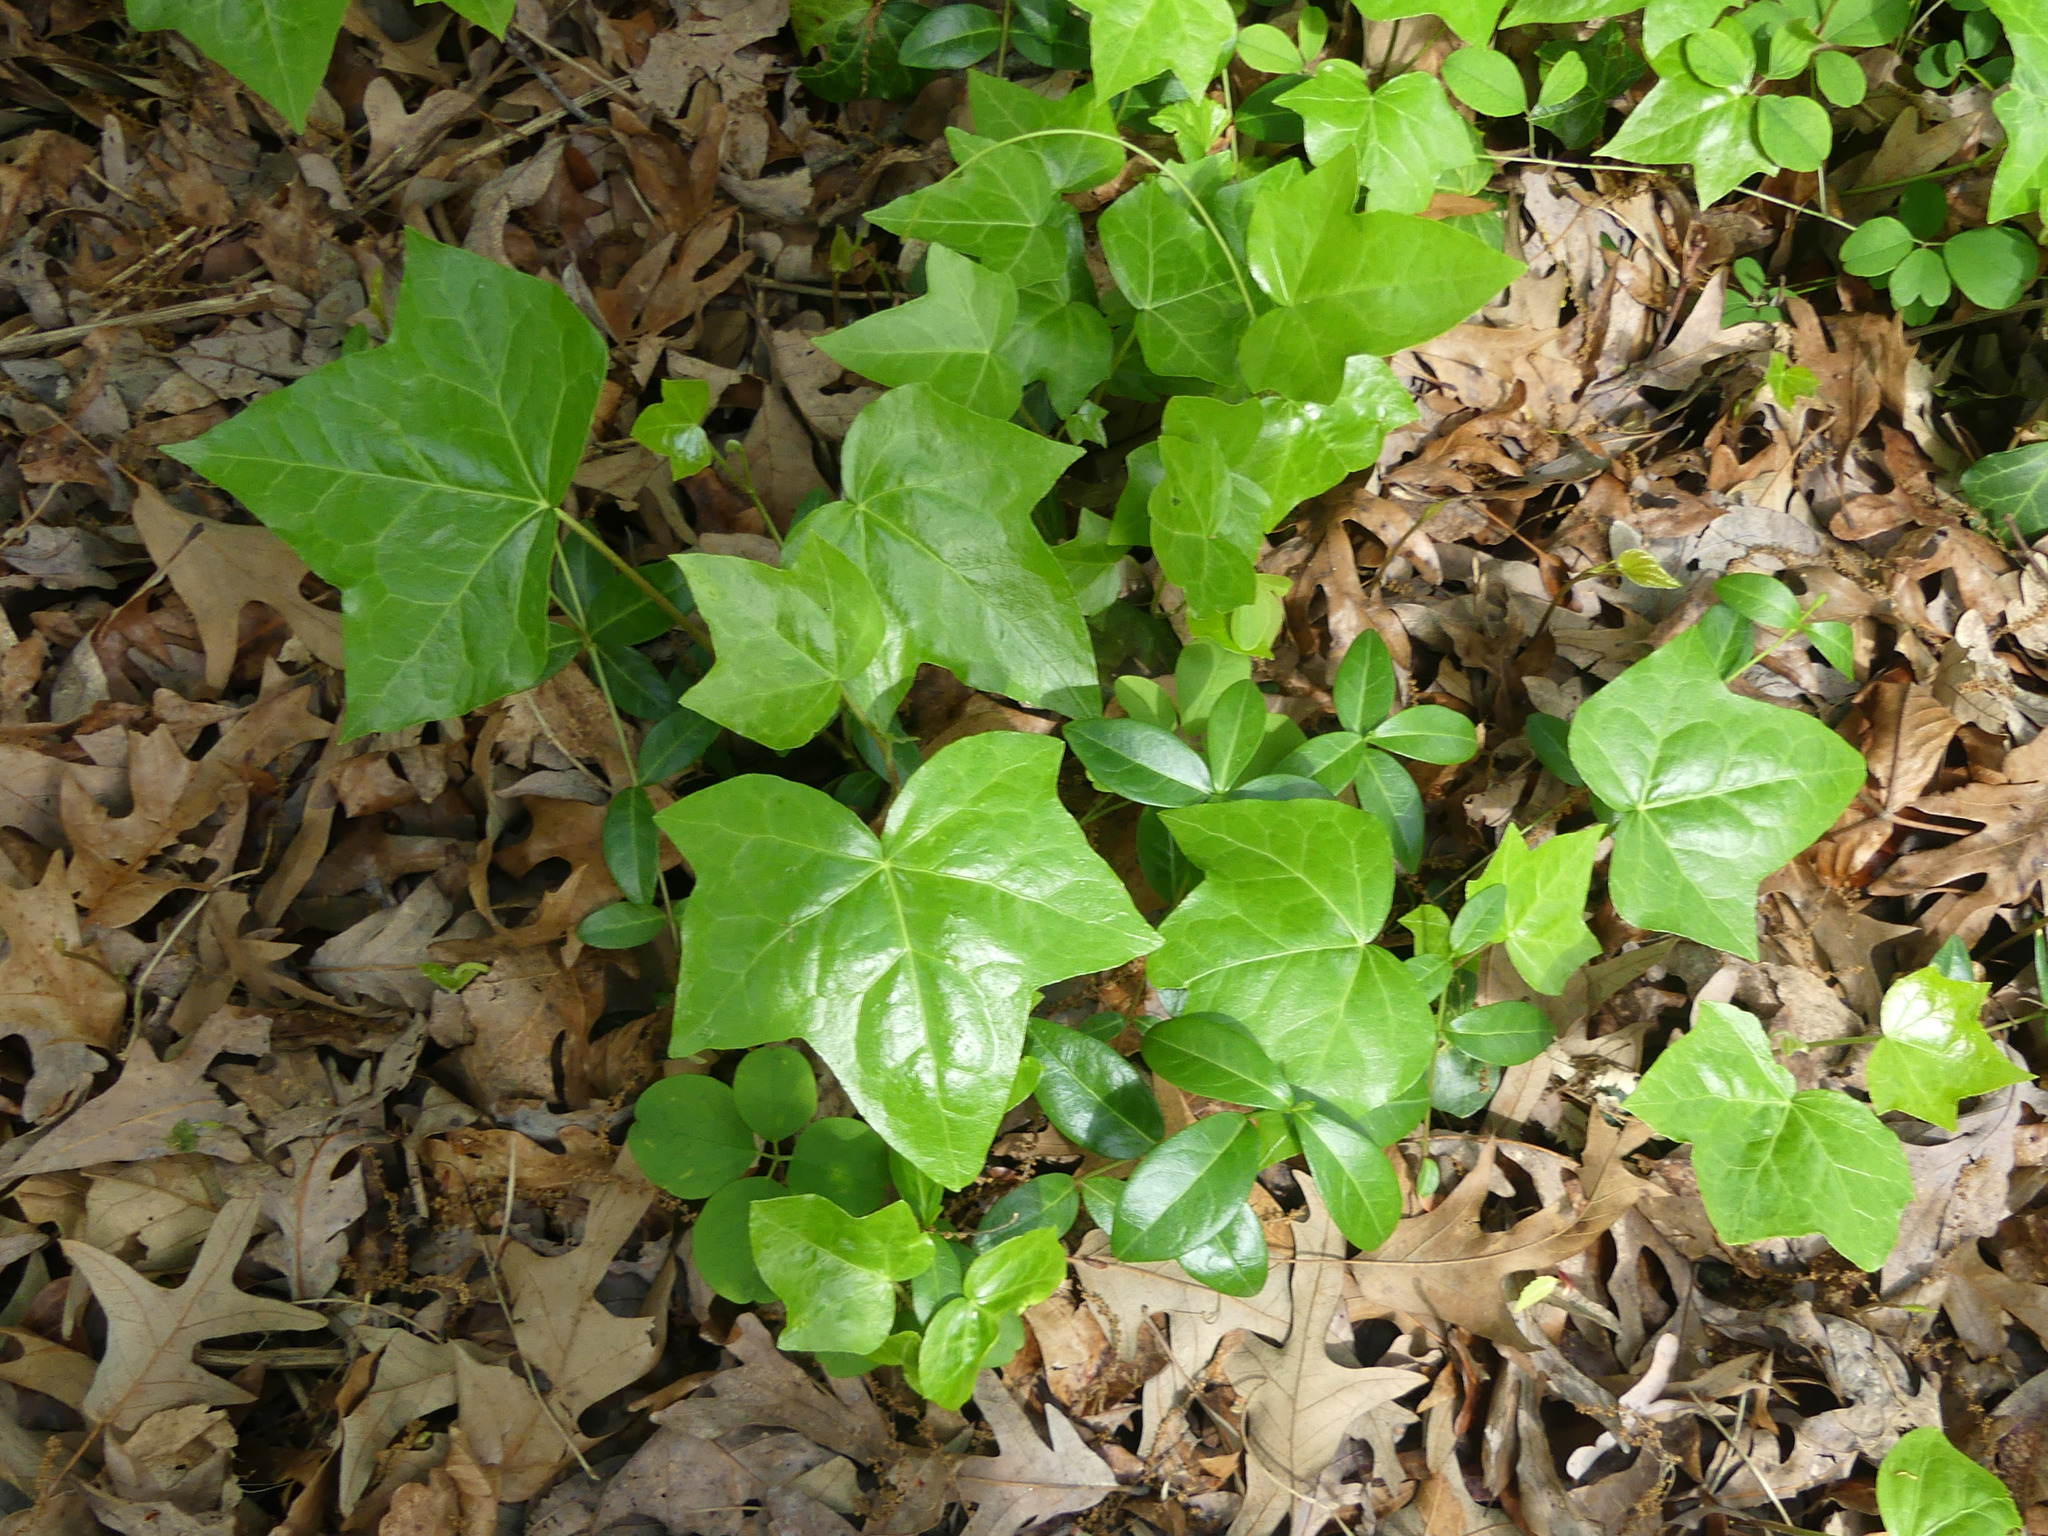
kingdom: Plantae
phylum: Tracheophyta
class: Magnoliopsida
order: Apiales
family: Araliaceae
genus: Hedera
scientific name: Hedera helix
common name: Ivy
